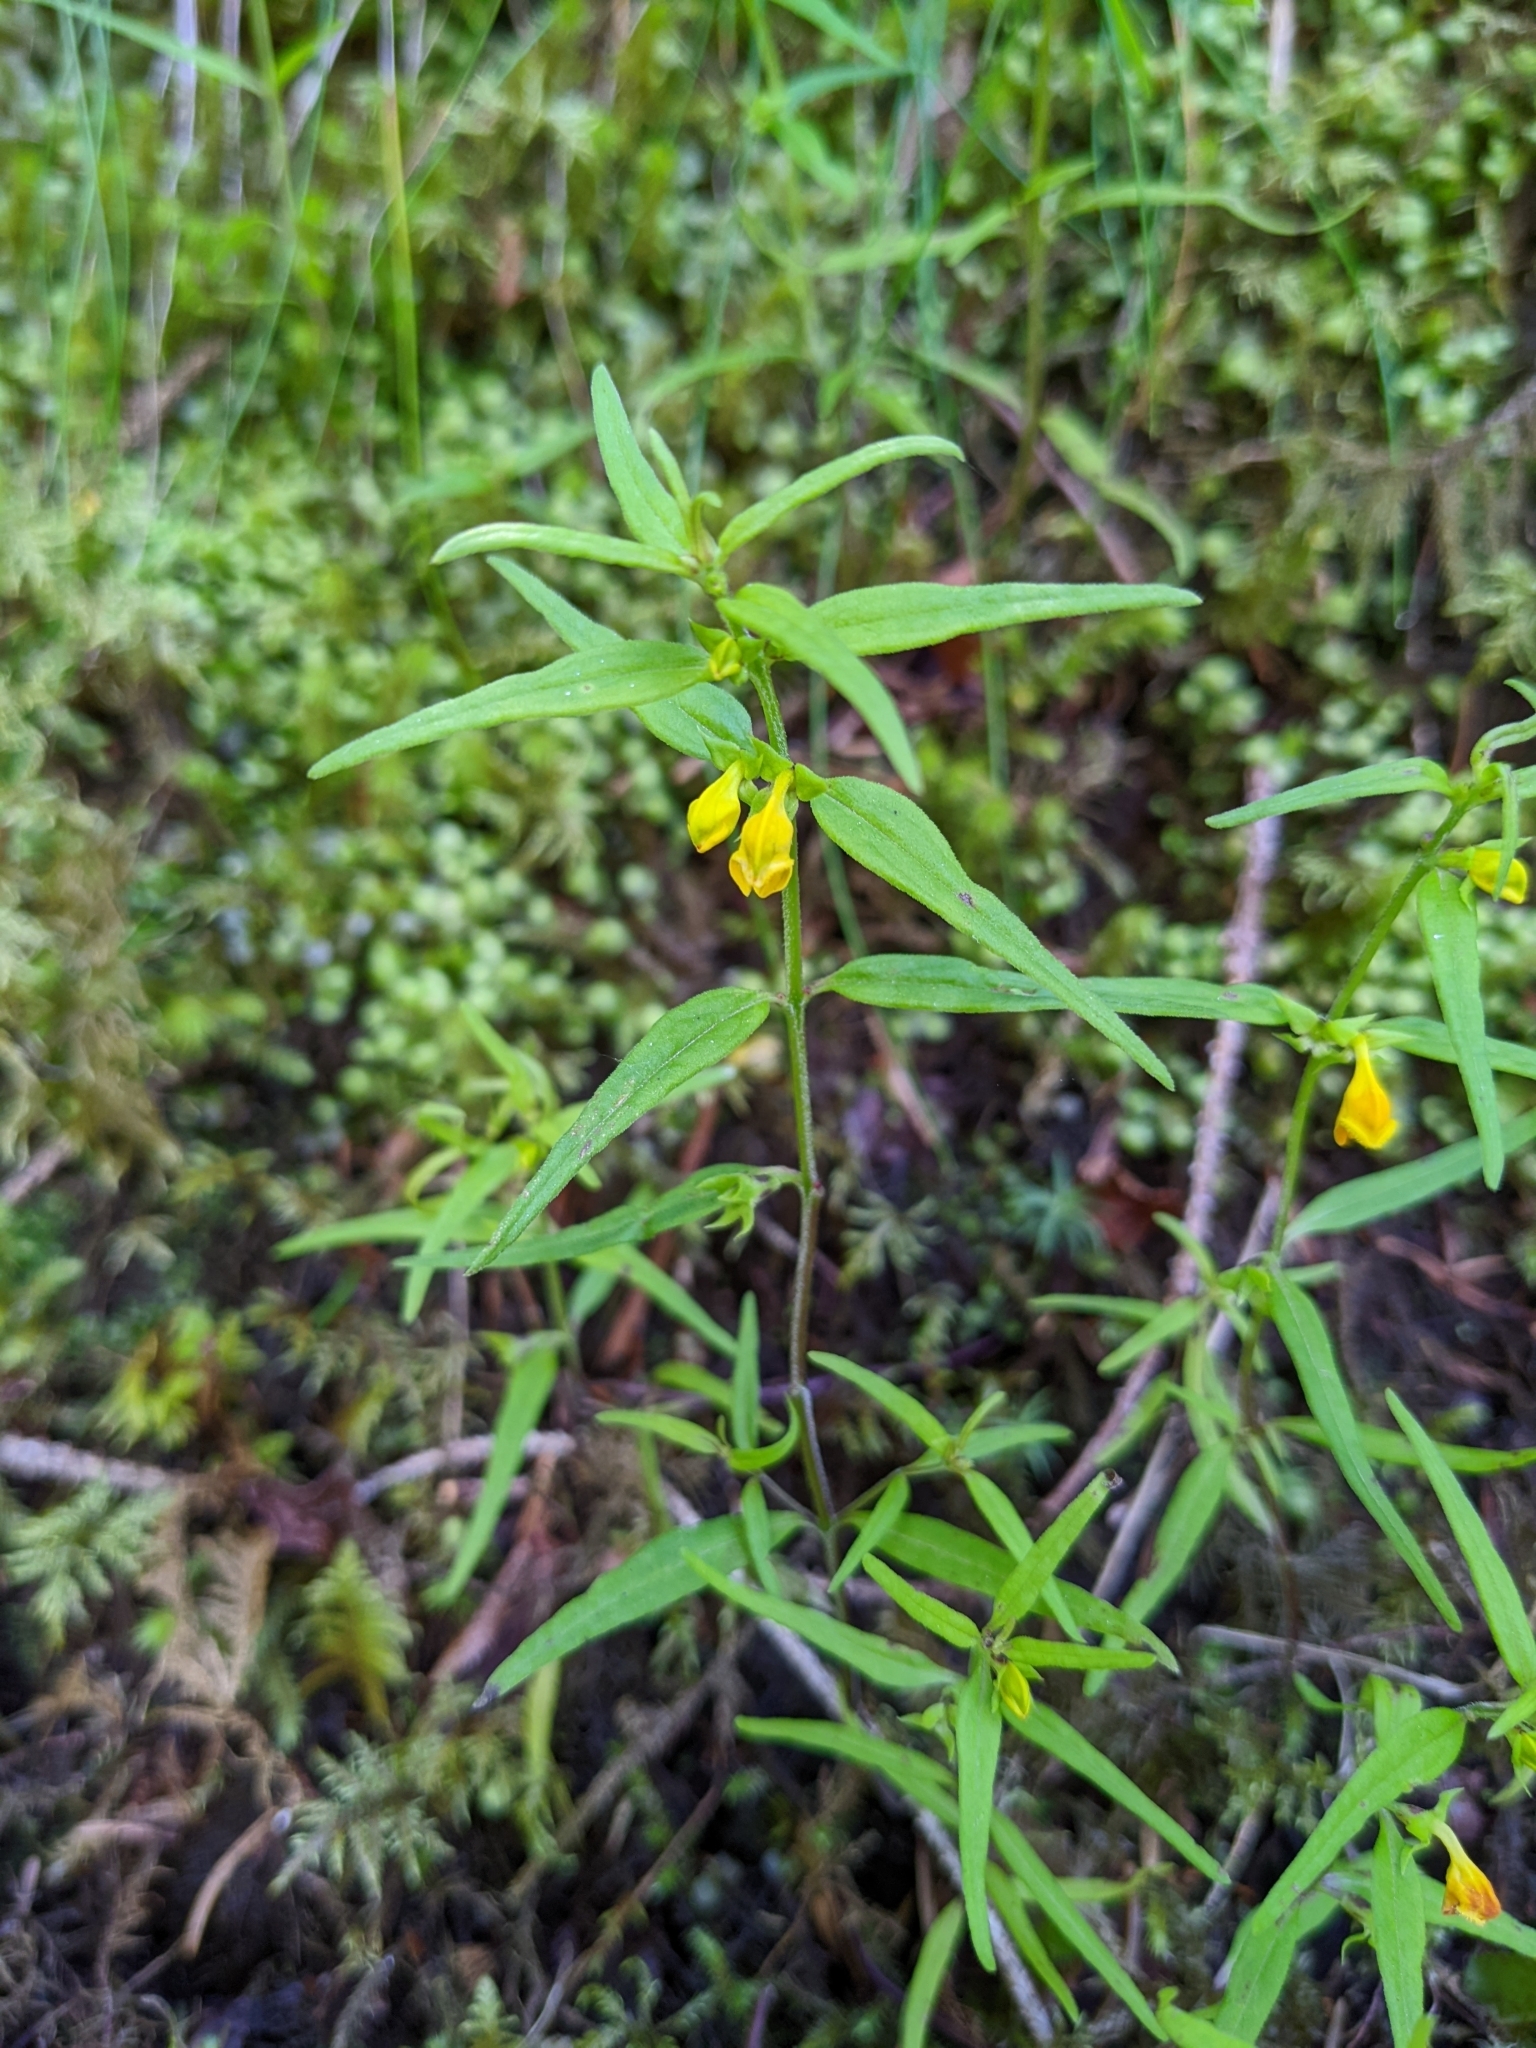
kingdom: Plantae
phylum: Tracheophyta
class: Magnoliopsida
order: Lamiales
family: Orobanchaceae
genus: Melampyrum
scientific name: Melampyrum sylvaticum
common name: Small cow-wheat
